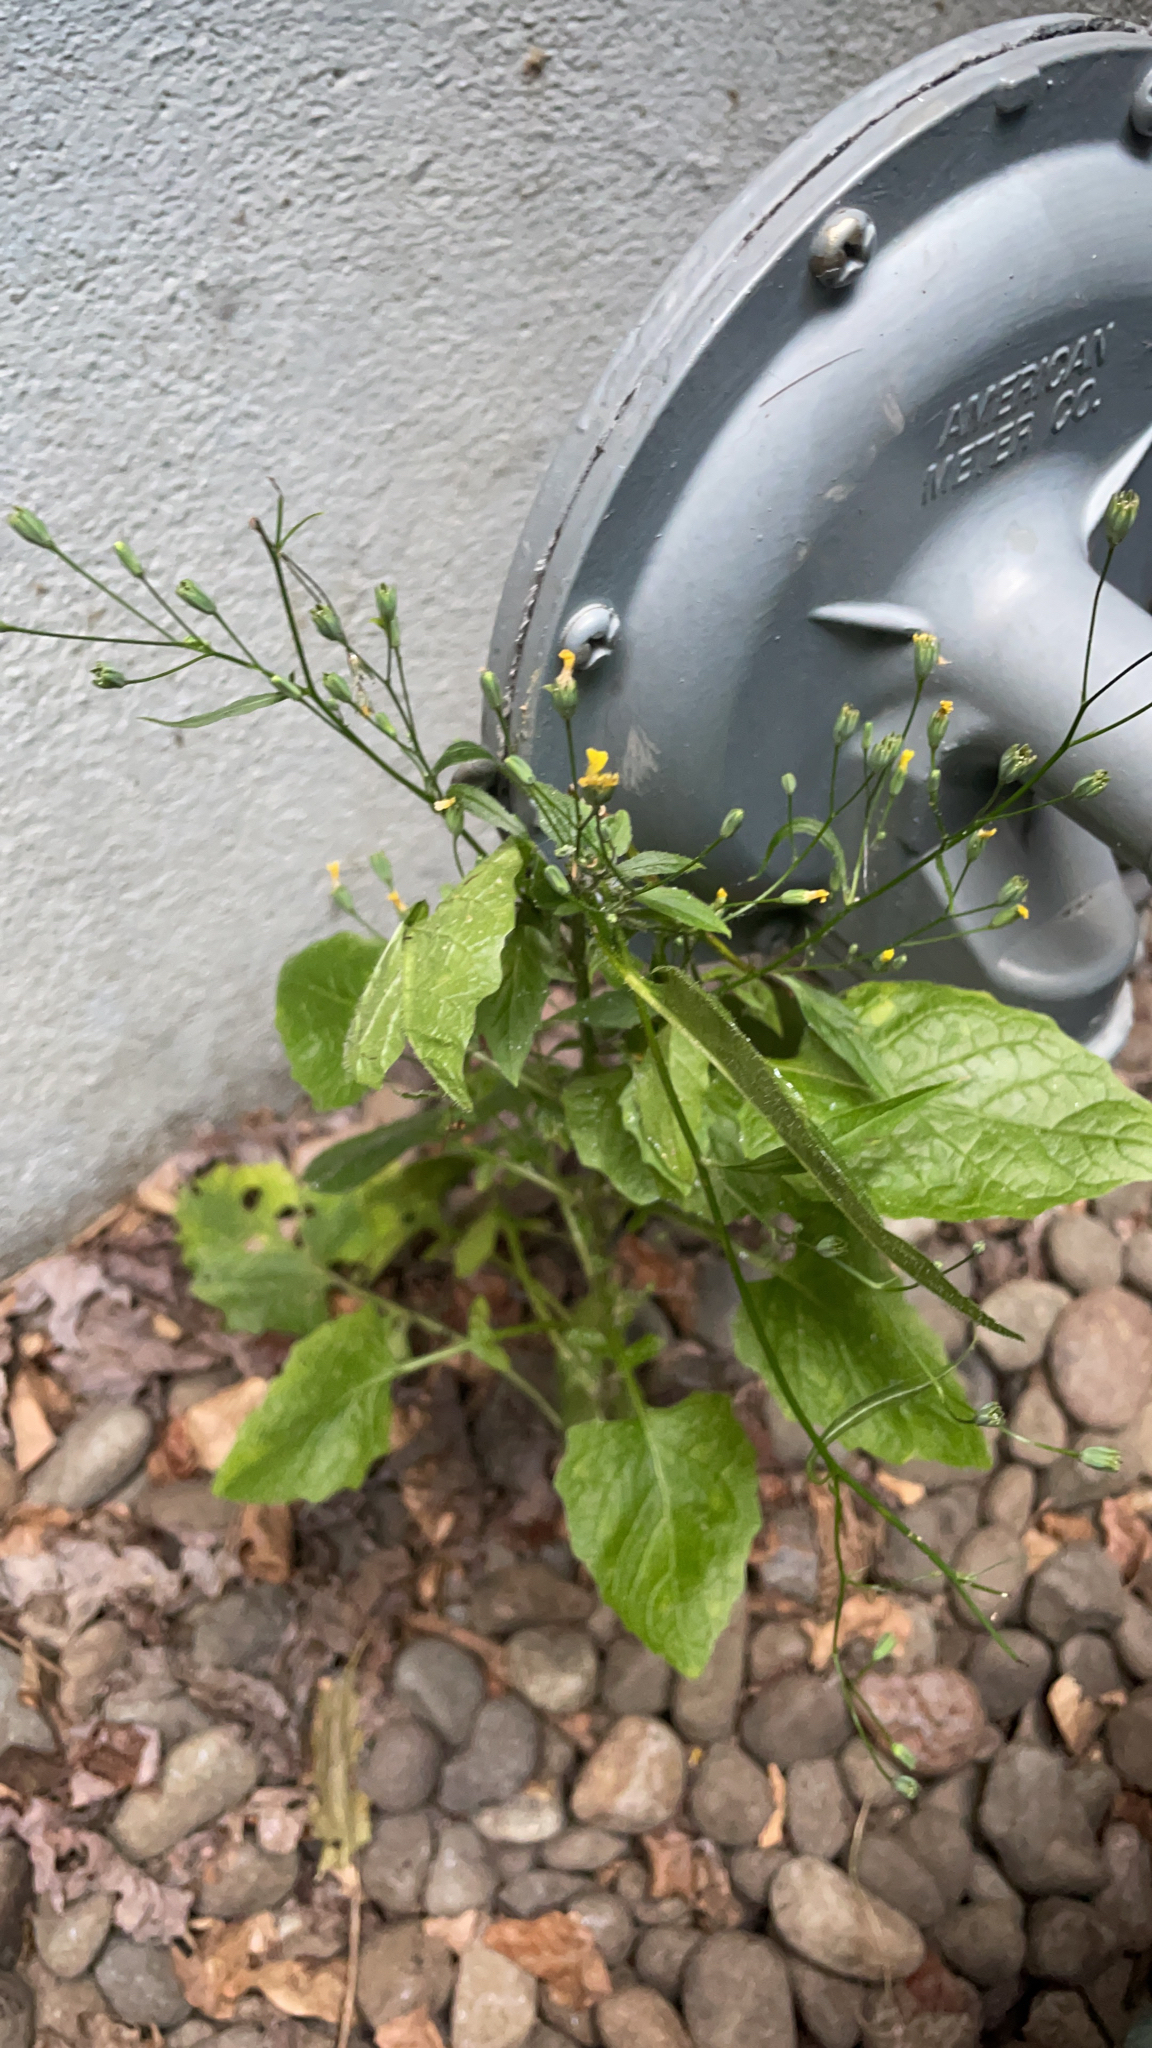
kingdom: Plantae
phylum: Tracheophyta
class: Magnoliopsida
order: Asterales
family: Asteraceae
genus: Lapsana
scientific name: Lapsana communis
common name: Nipplewort
